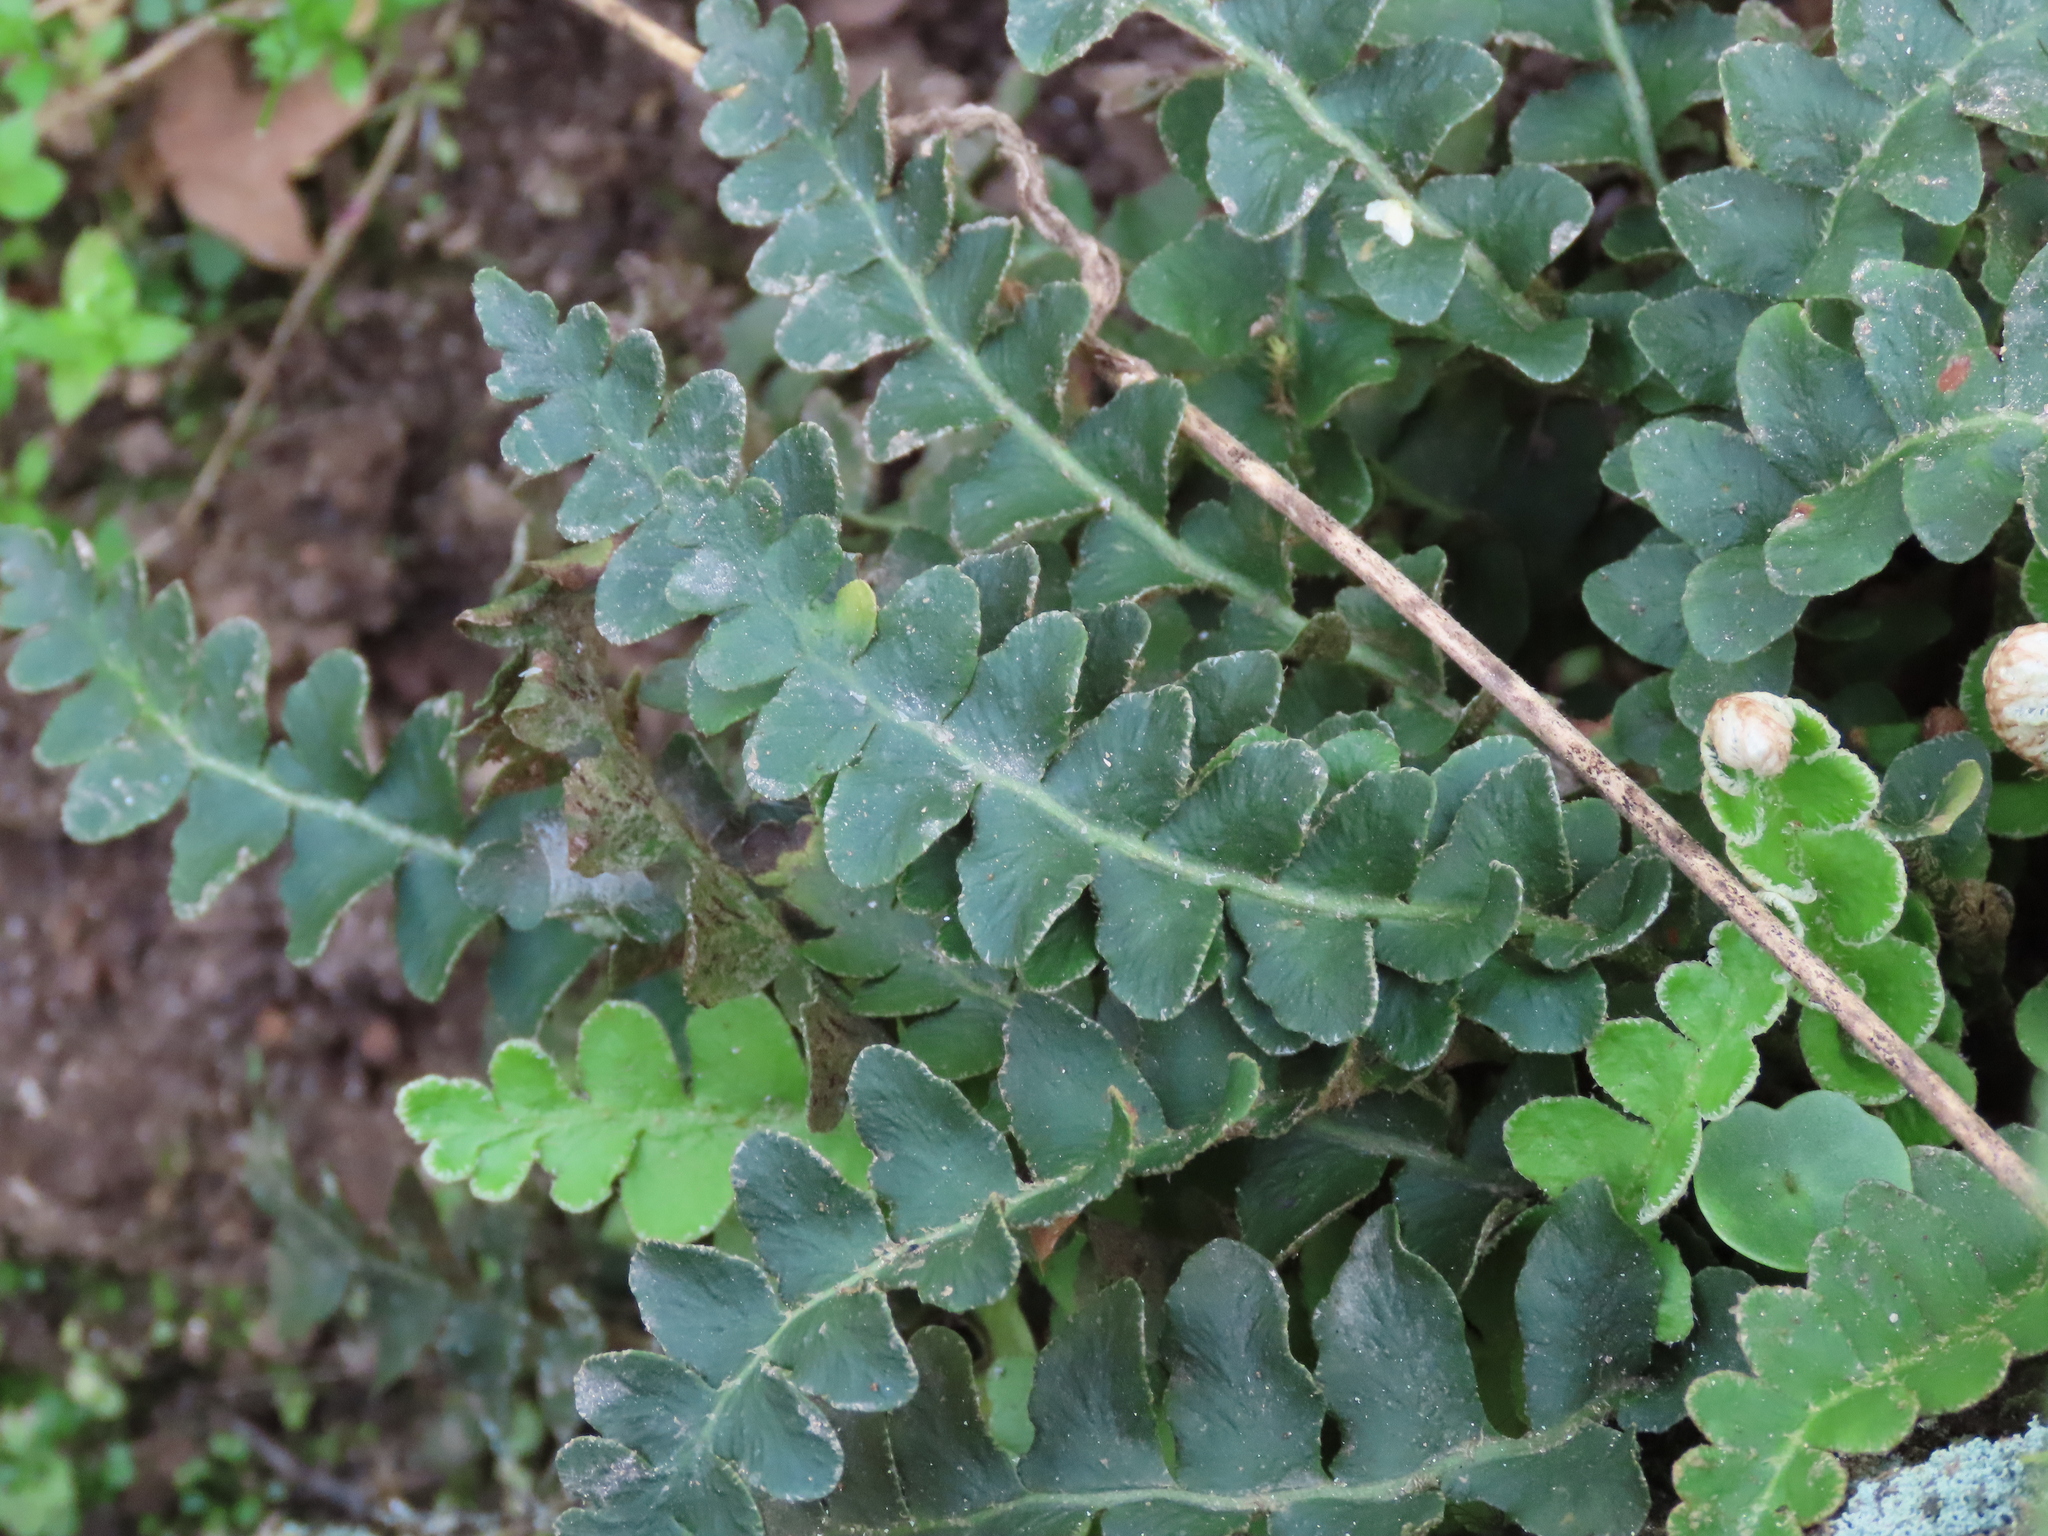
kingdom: Plantae
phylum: Tracheophyta
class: Polypodiopsida
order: Polypodiales
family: Aspleniaceae
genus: Asplenium
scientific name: Asplenium ceterach
